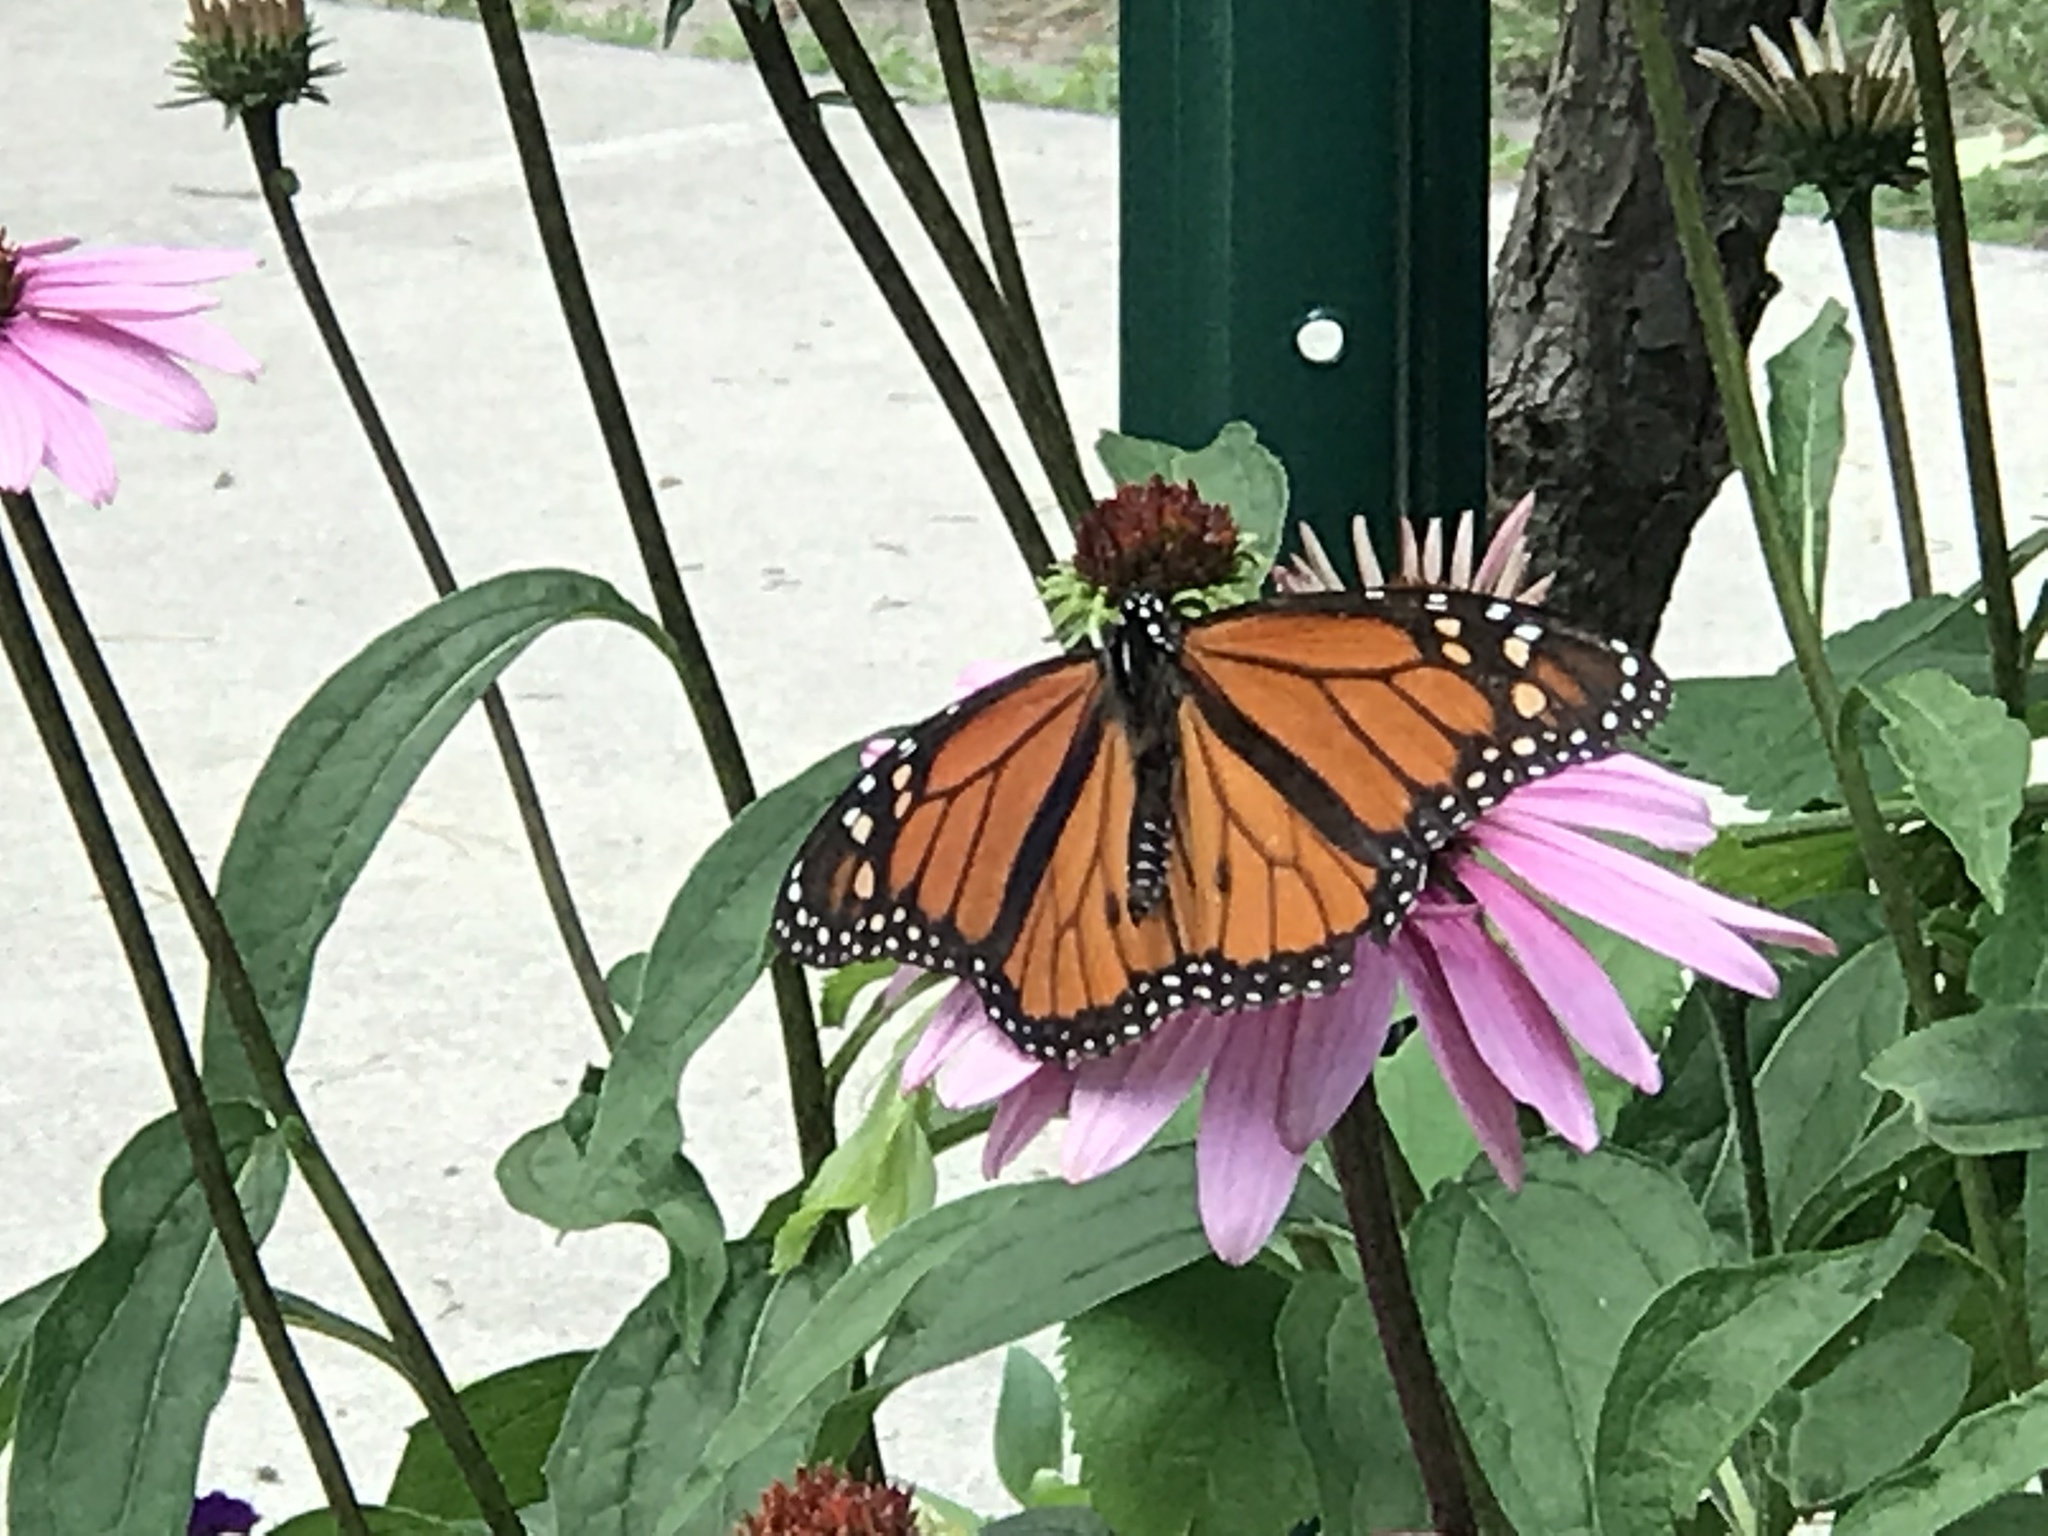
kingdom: Animalia
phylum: Arthropoda
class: Insecta
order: Lepidoptera
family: Nymphalidae
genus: Danaus
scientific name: Danaus plexippus
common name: Monarch
